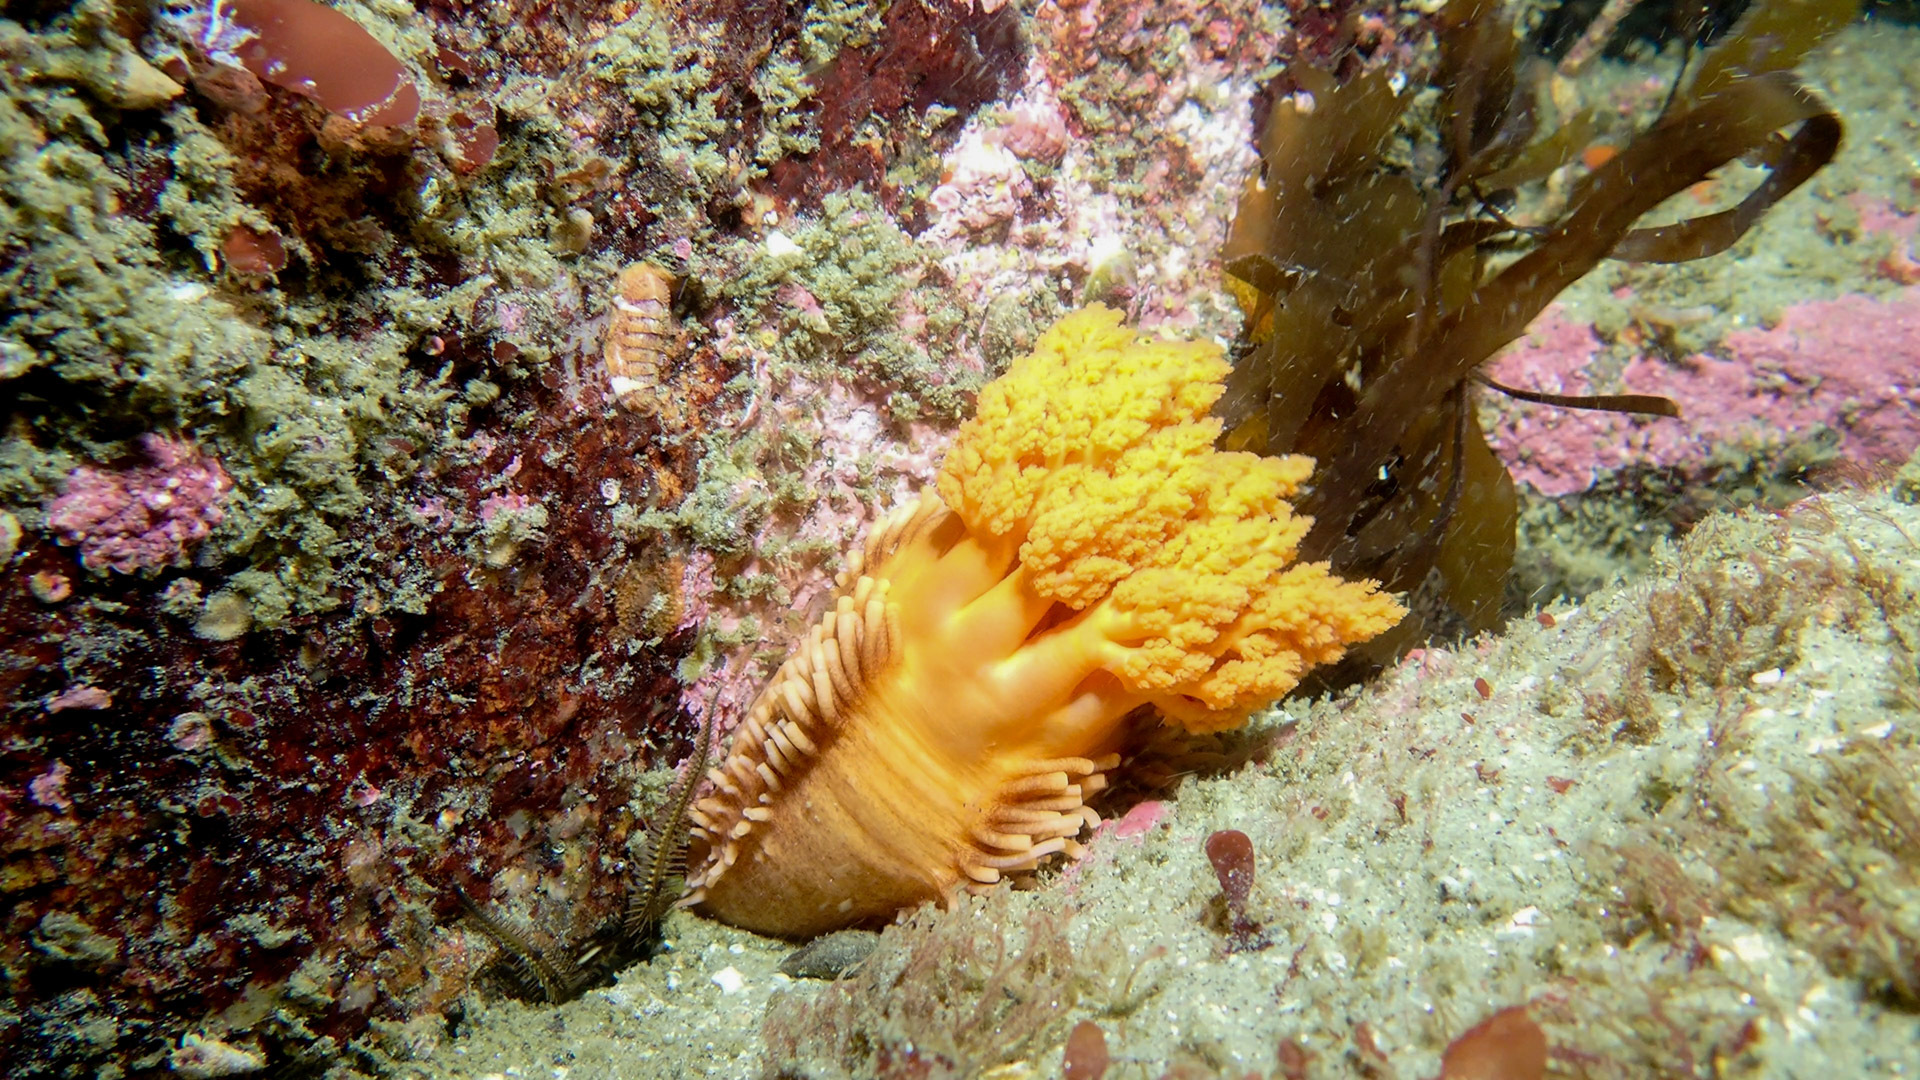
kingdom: Animalia
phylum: Echinodermata
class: Holothuroidea
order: Dendrochirotida
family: Cucumariidae
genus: Cucumaria
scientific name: Cucumaria miniata
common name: Orange sea cucumber
